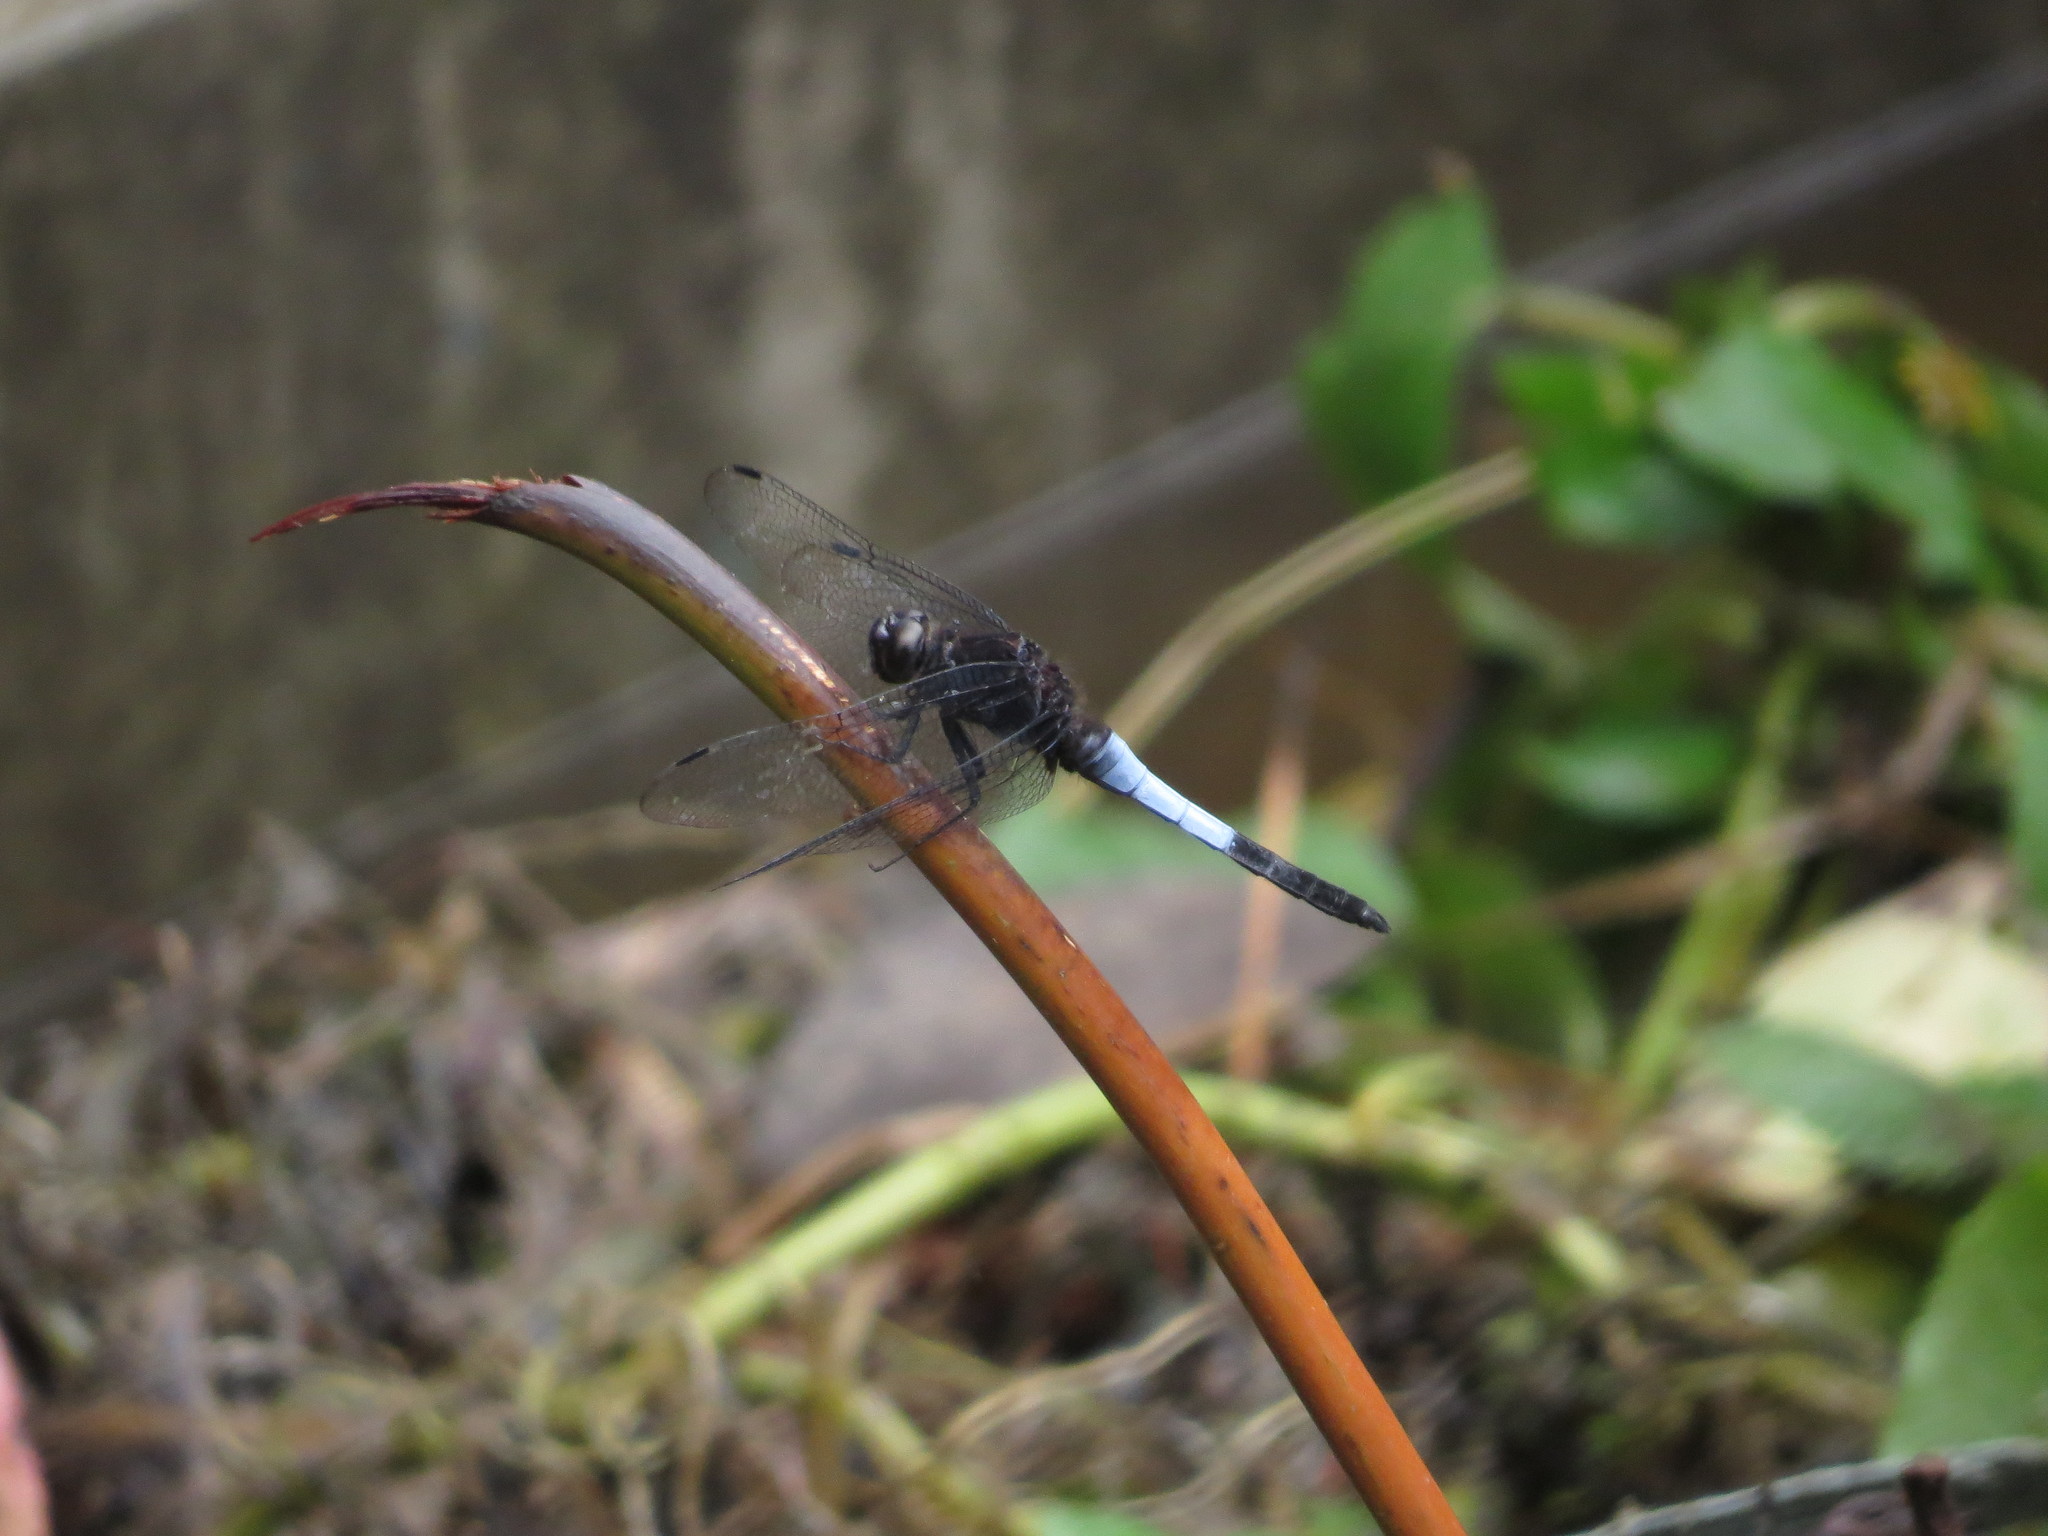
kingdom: Animalia
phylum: Arthropoda
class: Insecta
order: Odonata
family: Libellulidae
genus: Orthetrum
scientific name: Orthetrum triangulare
